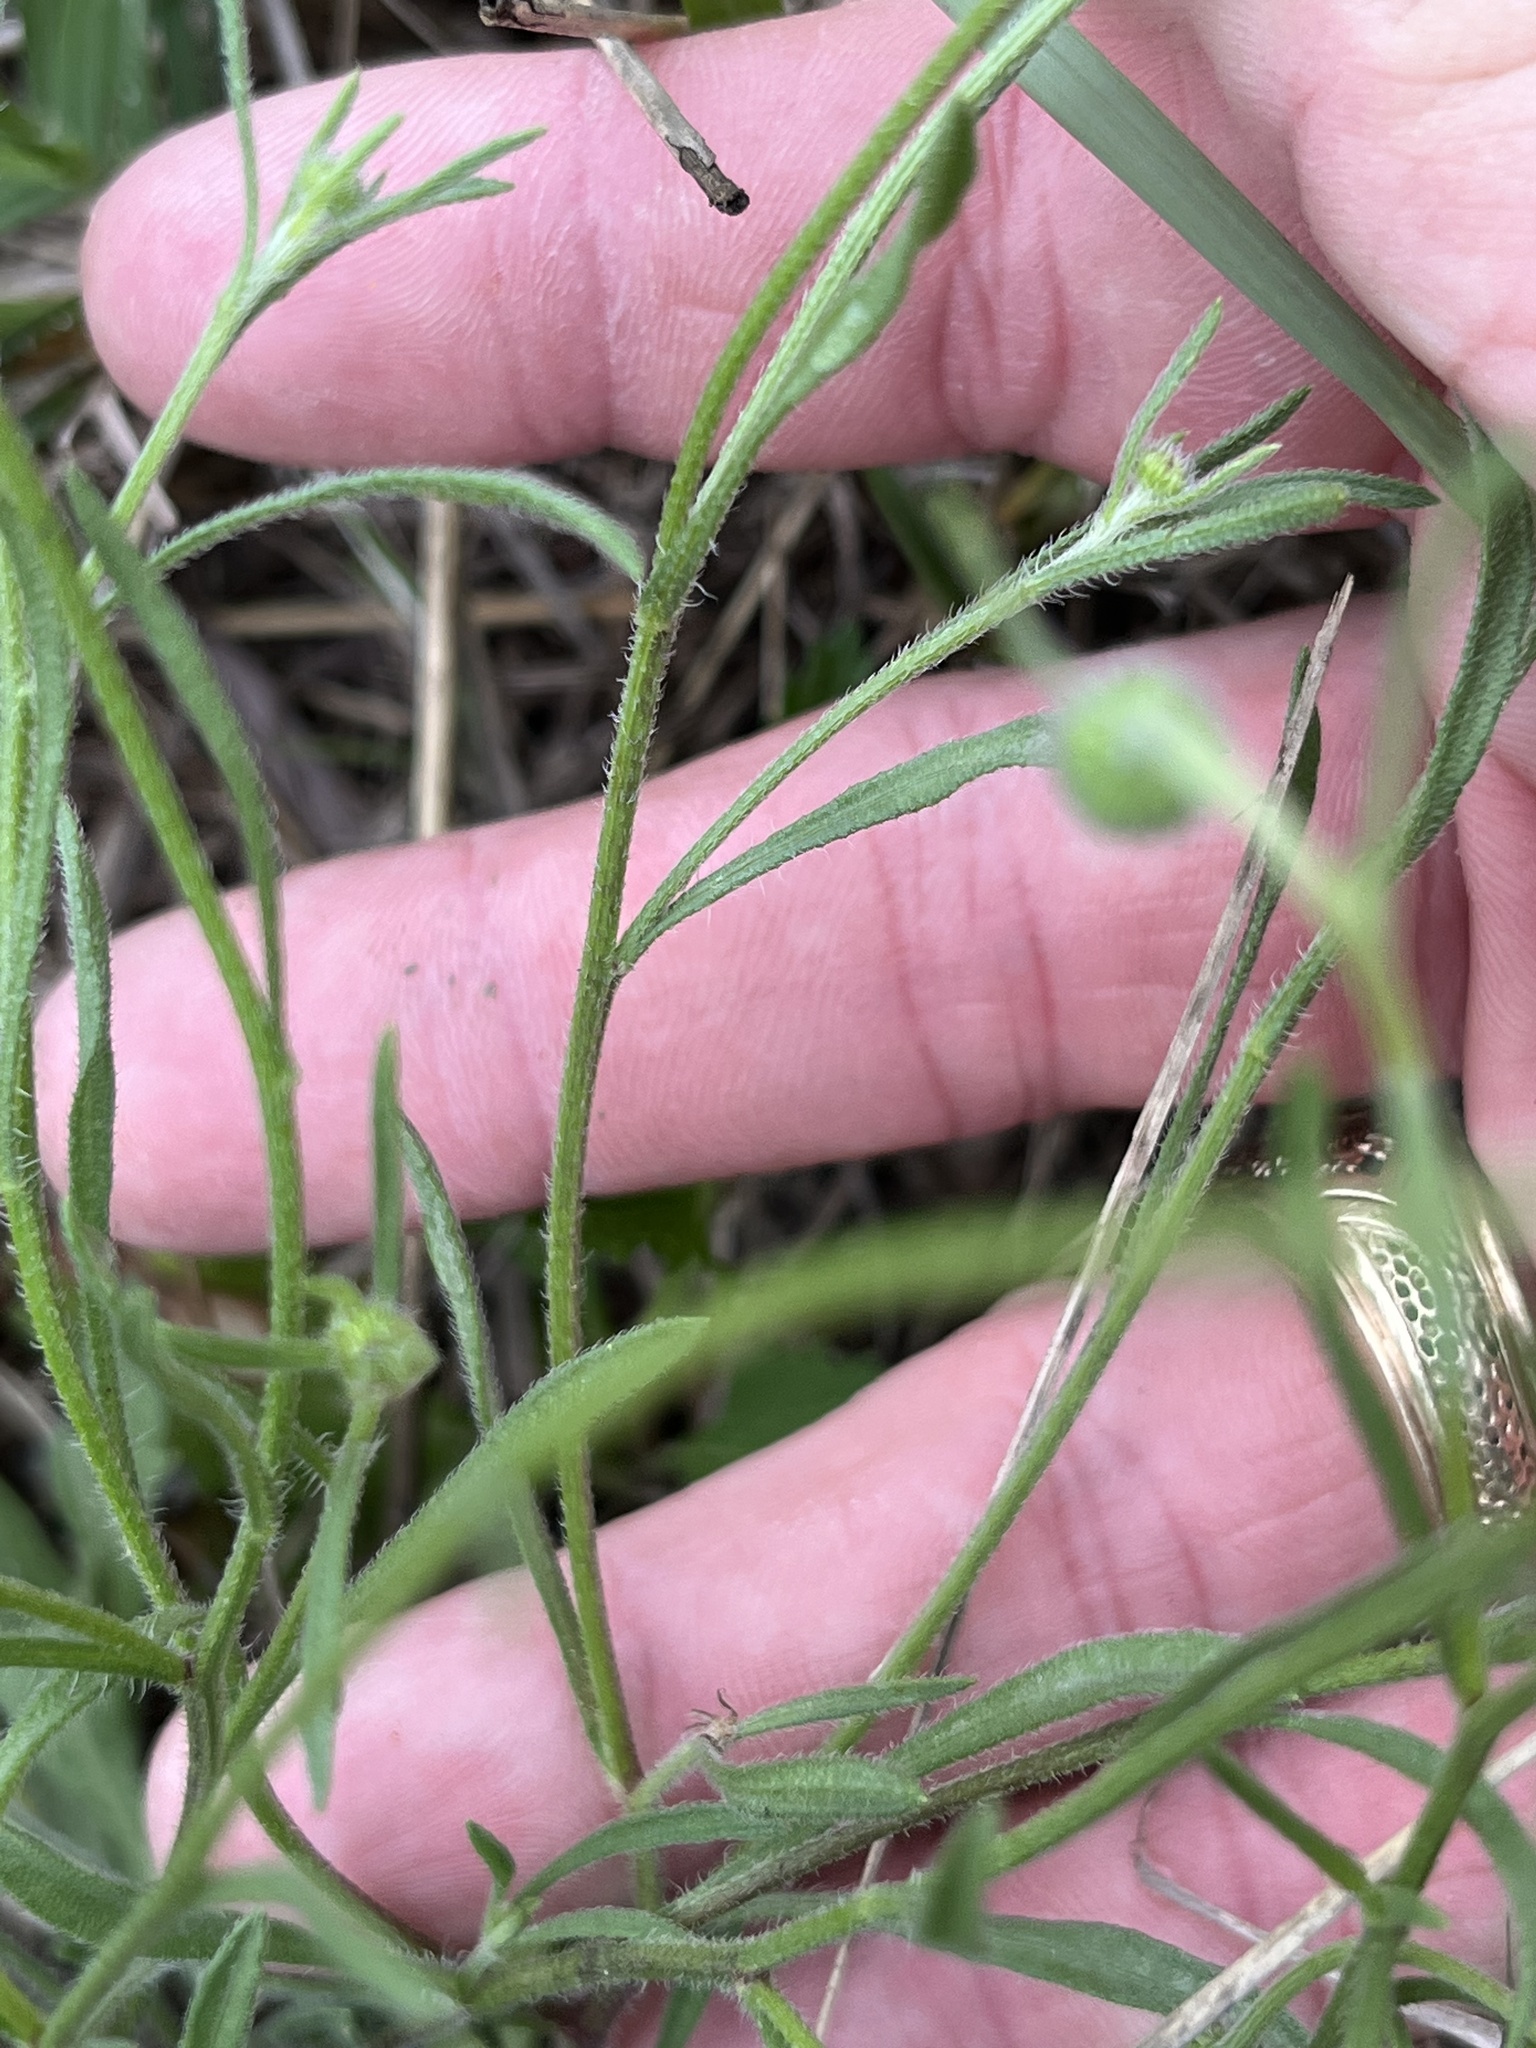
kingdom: Plantae
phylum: Tracheophyta
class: Magnoliopsida
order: Asterales
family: Asteraceae
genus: Erigeron
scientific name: Erigeron modestus
